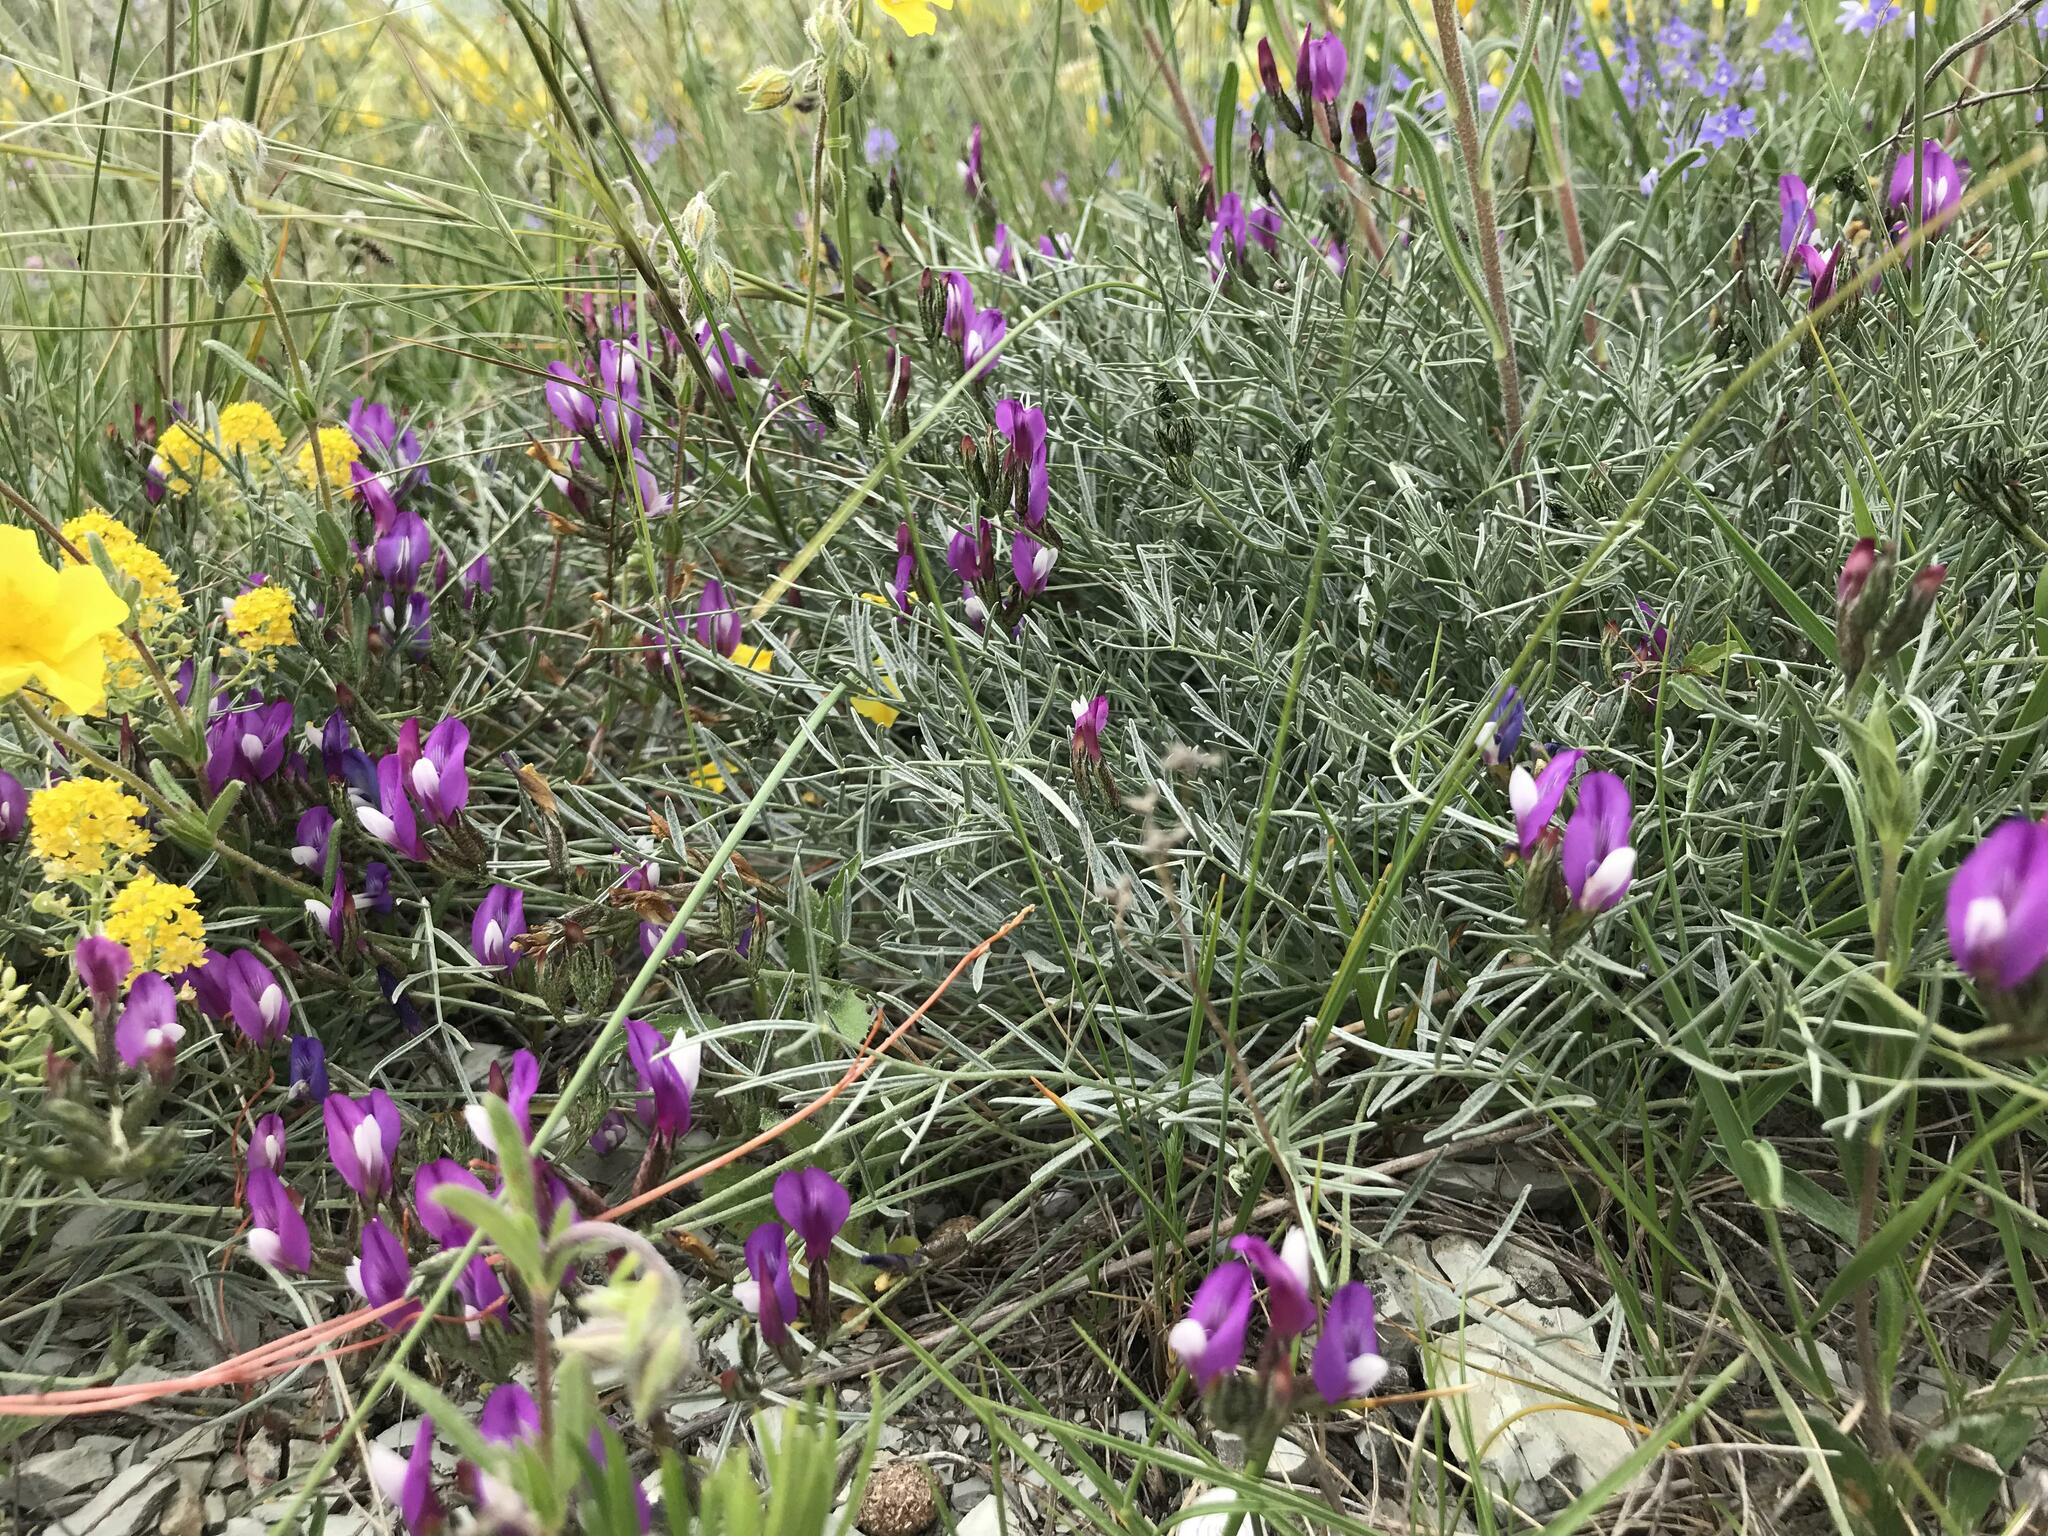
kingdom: Plantae
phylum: Tracheophyta
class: Magnoliopsida
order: Fabales
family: Fabaceae
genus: Astragalus
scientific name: Astragalus subuliformis
